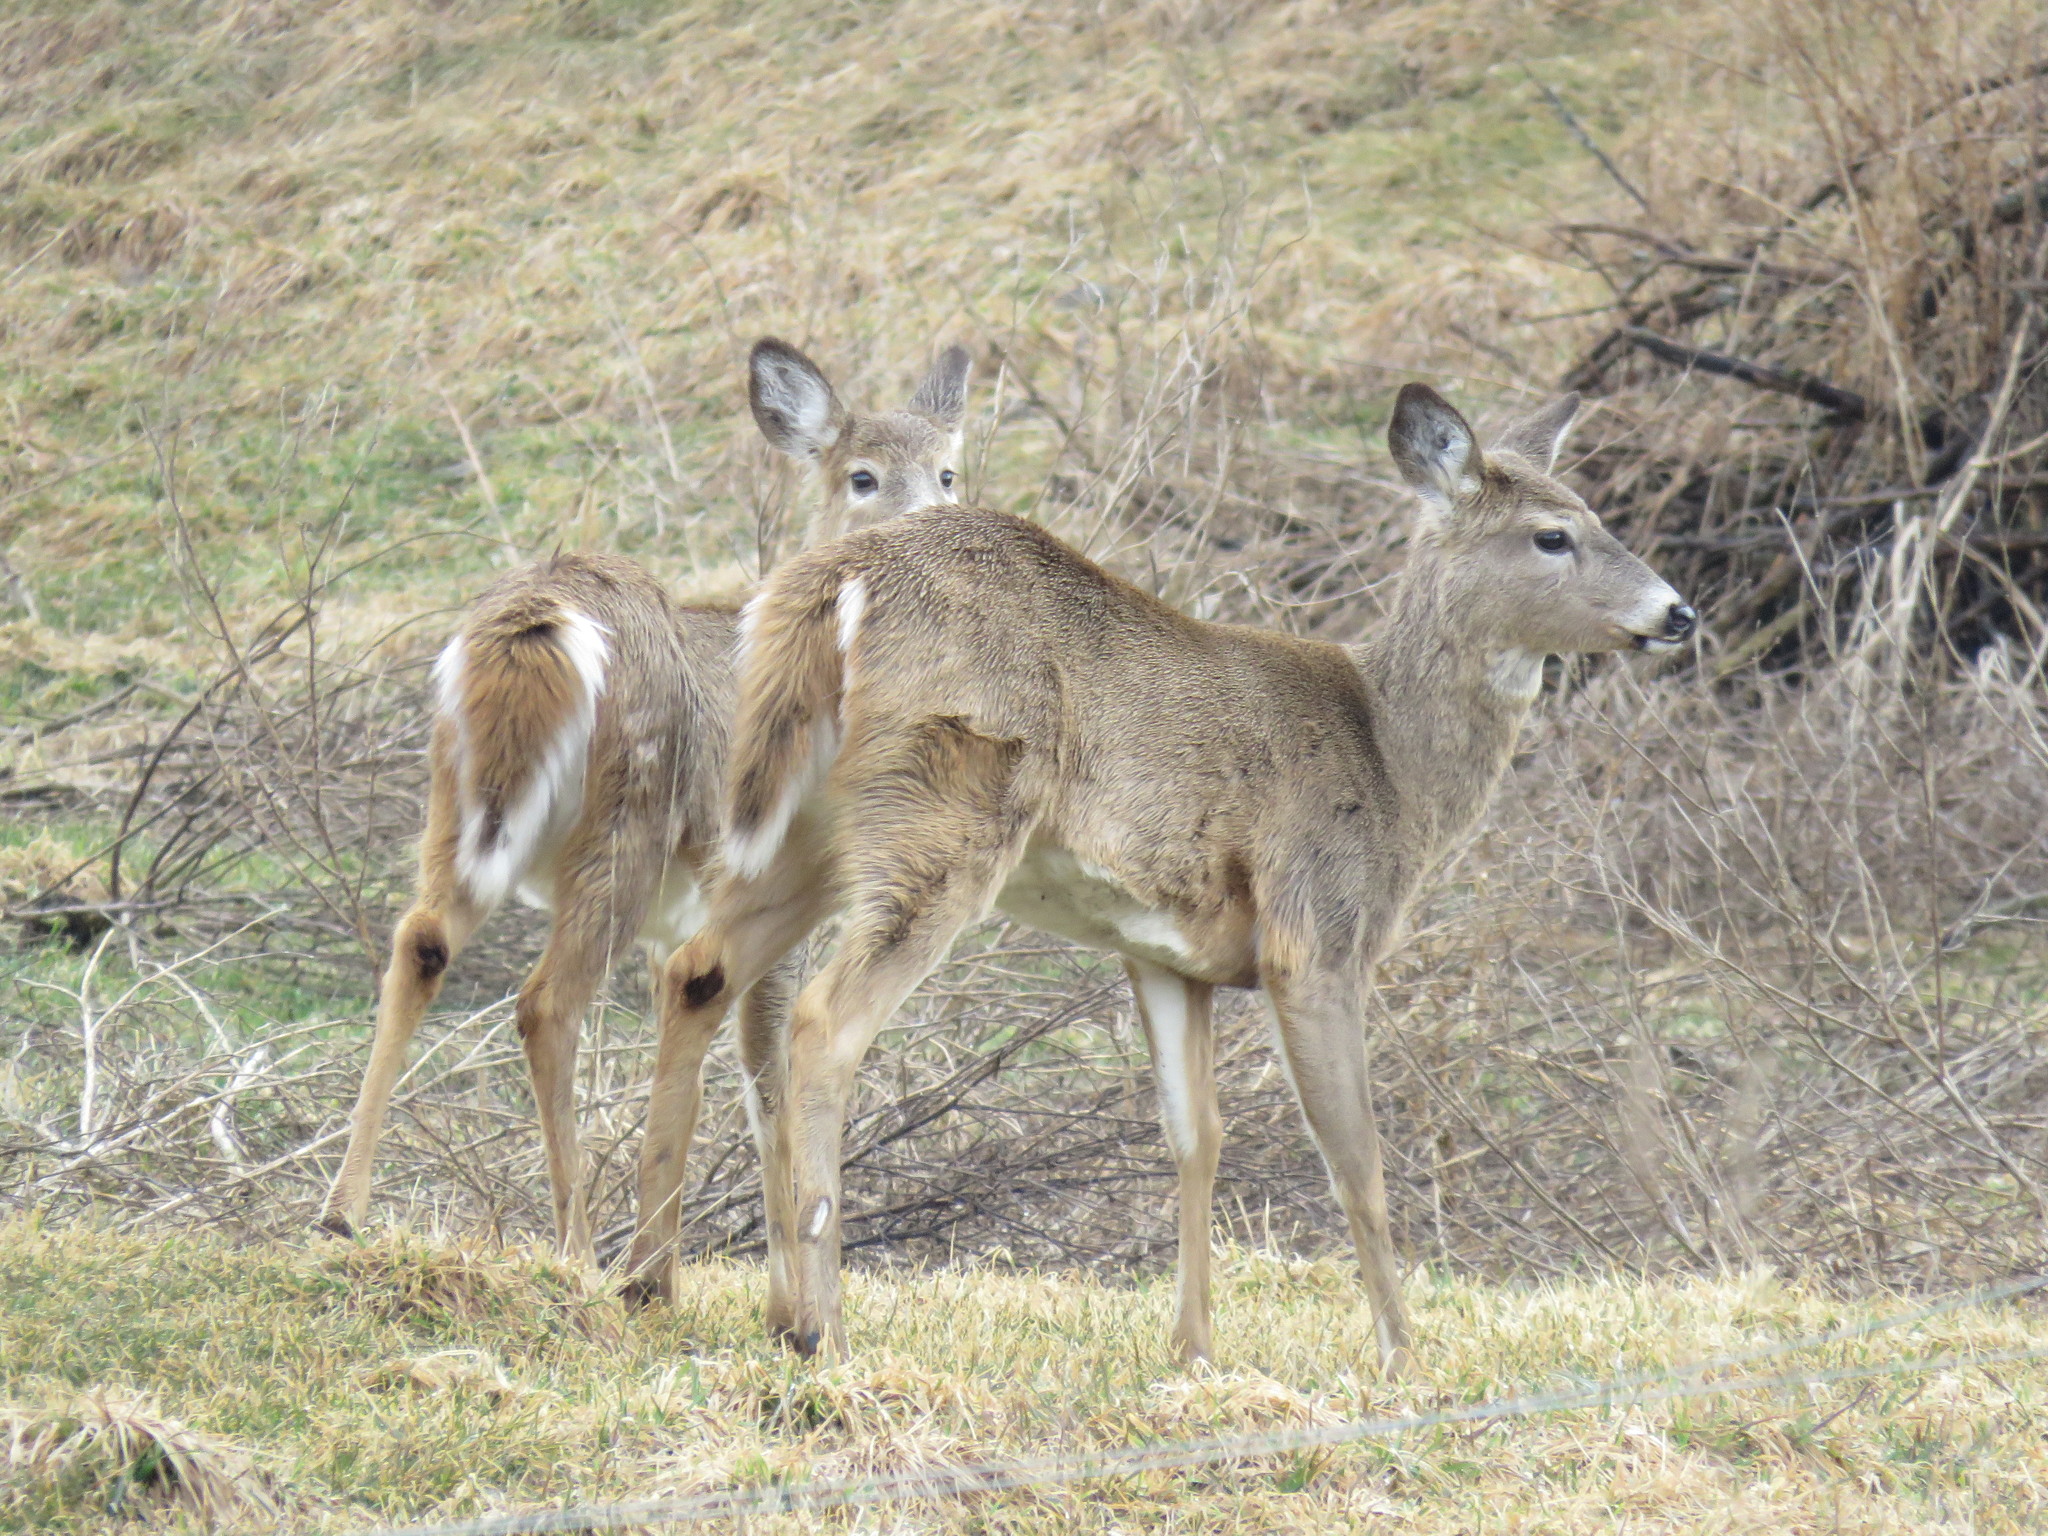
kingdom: Animalia
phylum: Chordata
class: Mammalia
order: Artiodactyla
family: Cervidae
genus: Odocoileus
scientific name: Odocoileus virginianus
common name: White-tailed deer
